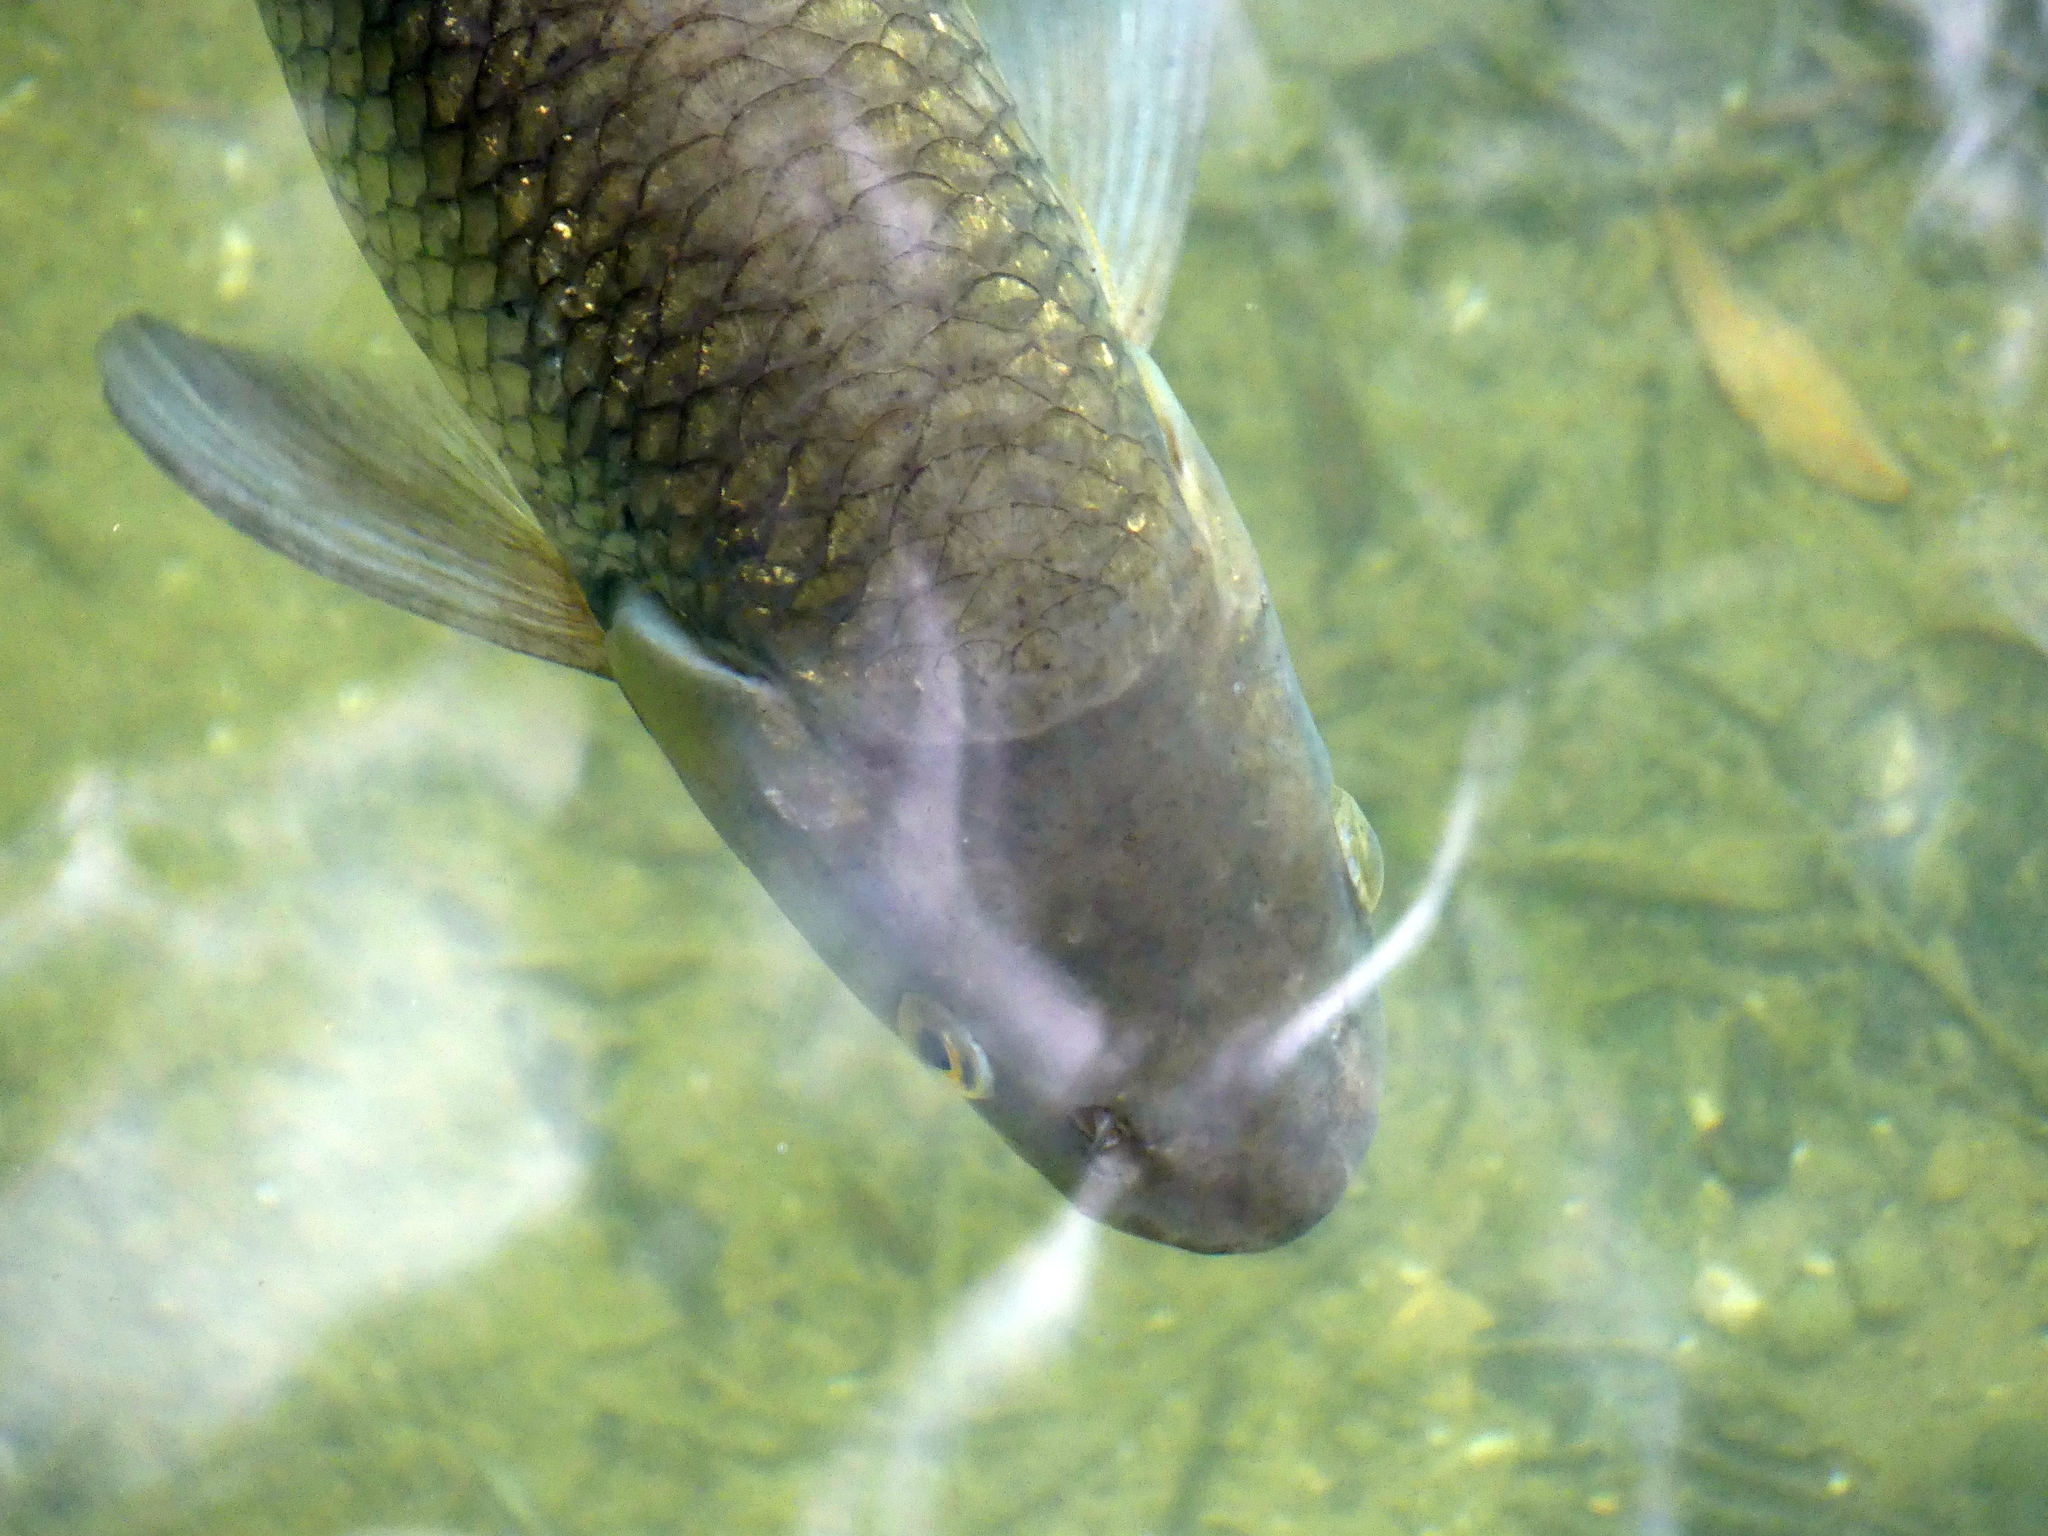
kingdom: Animalia
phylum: Chordata
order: Cypriniformes
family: Cyprinidae
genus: Squalius
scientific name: Squalius cephalus
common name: Chub
